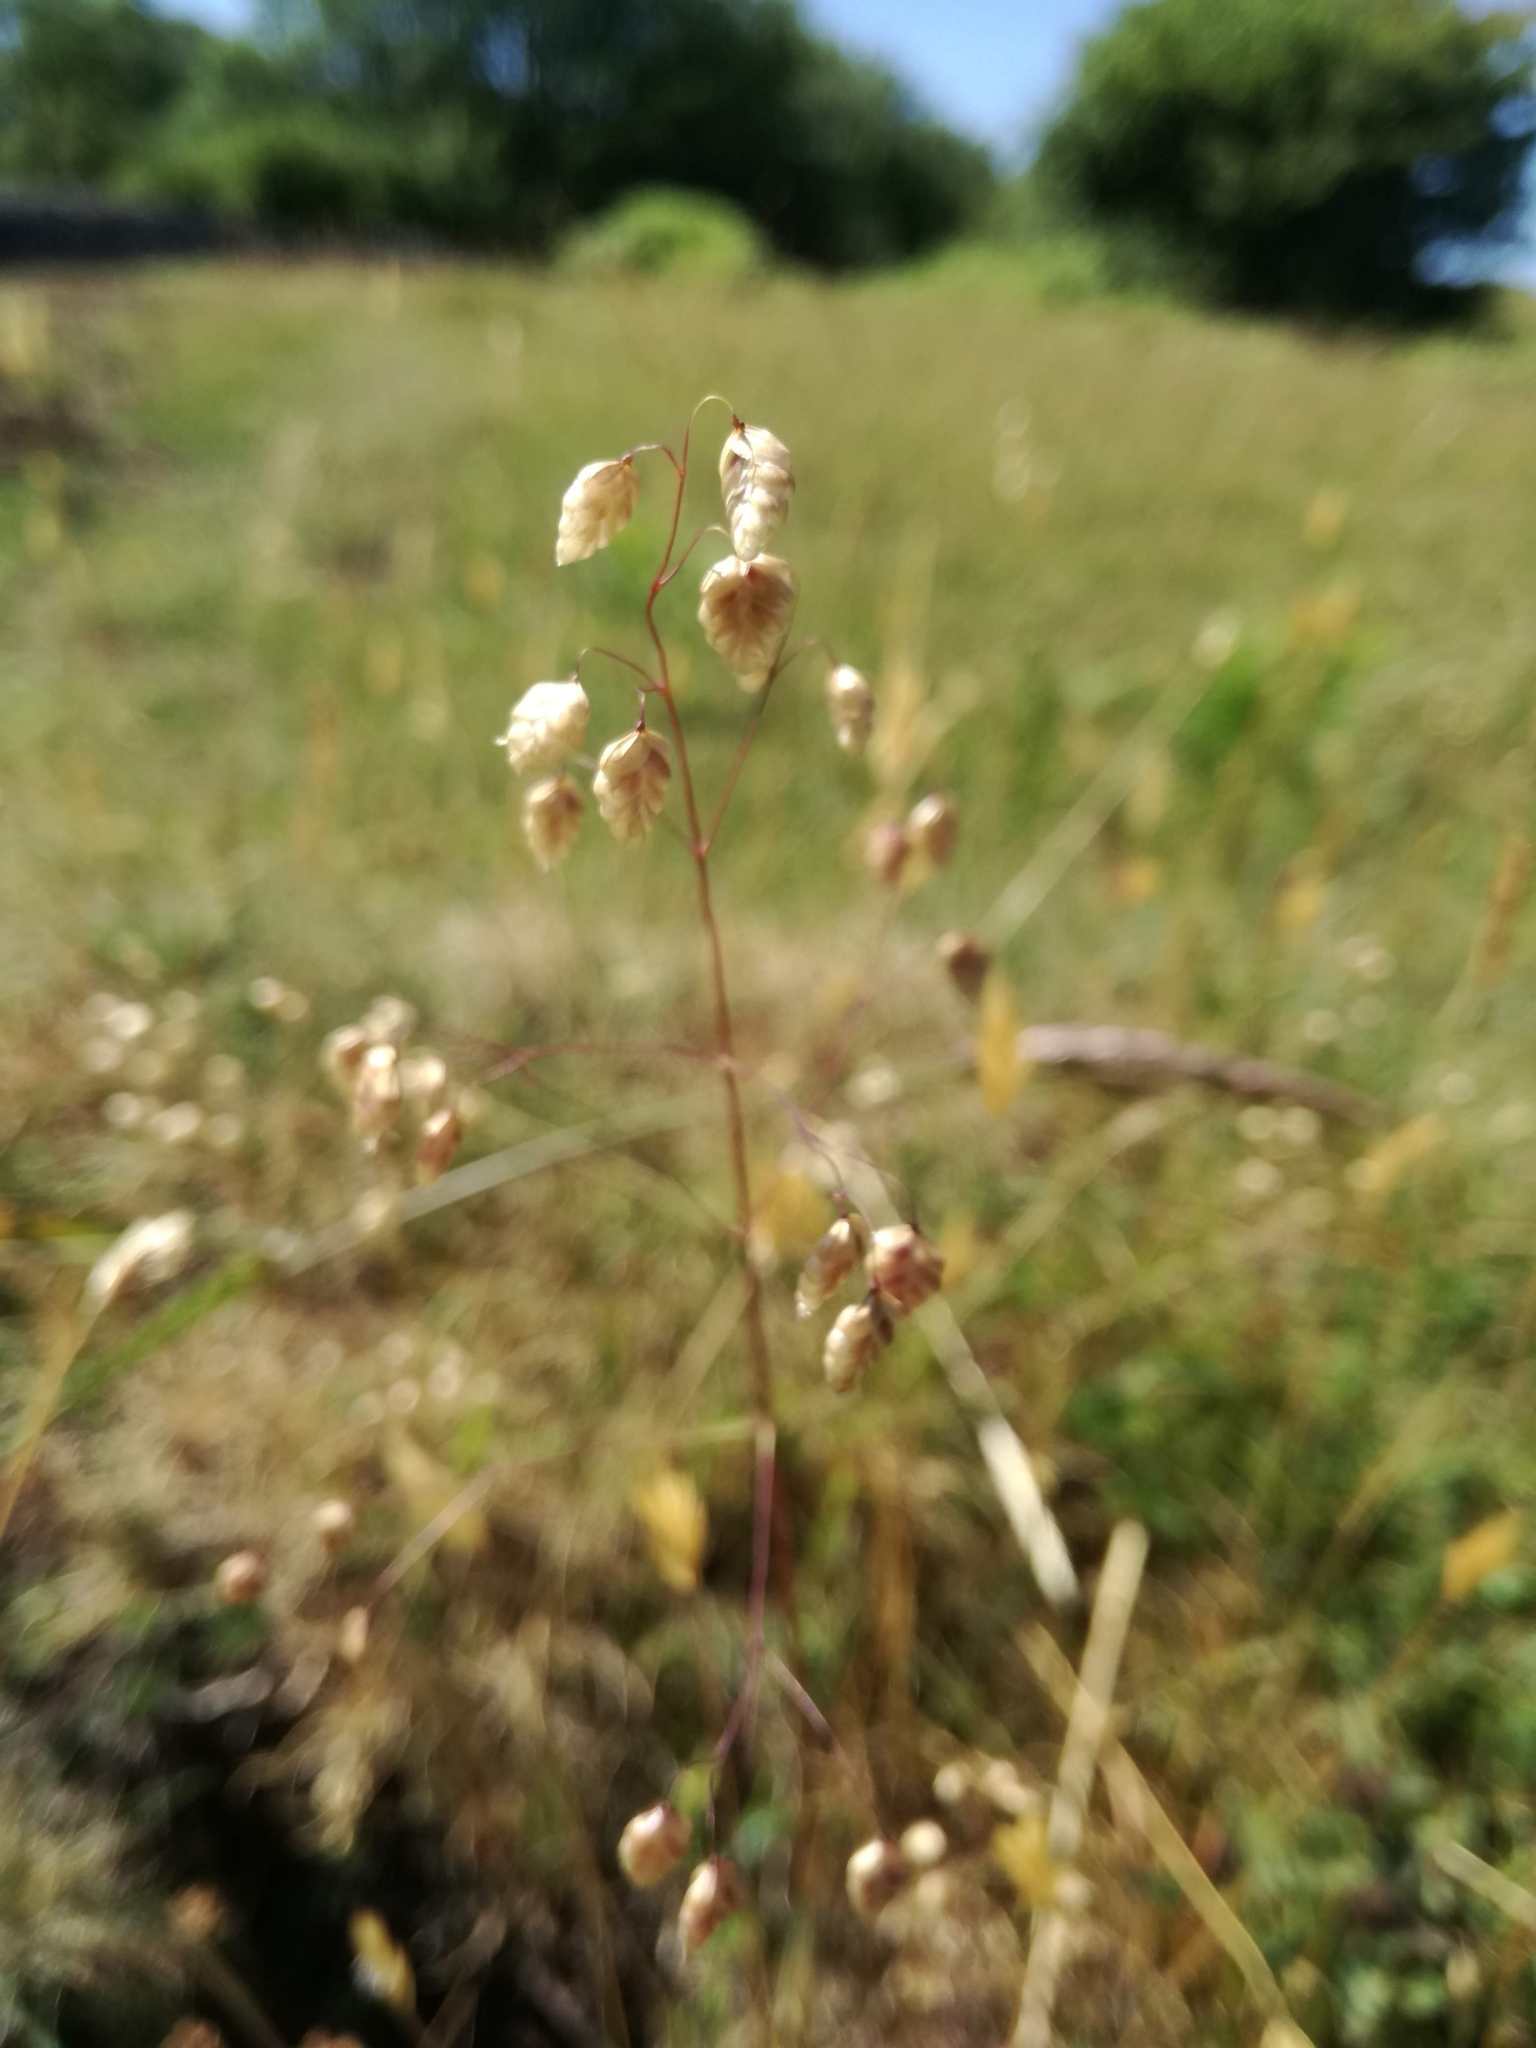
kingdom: Plantae
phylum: Tracheophyta
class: Liliopsida
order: Poales
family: Poaceae
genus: Briza
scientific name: Briza media
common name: Quaking grass
